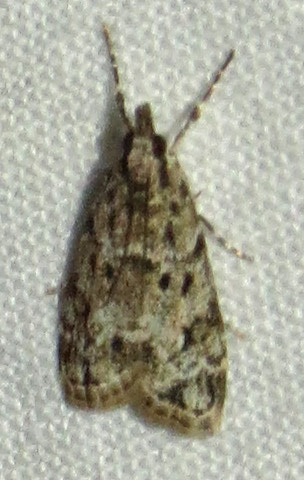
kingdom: Animalia
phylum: Arthropoda
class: Insecta
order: Lepidoptera
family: Crambidae
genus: Eudonia
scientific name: Eudonia heterosalis
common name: Mcdunnough's eudonia
